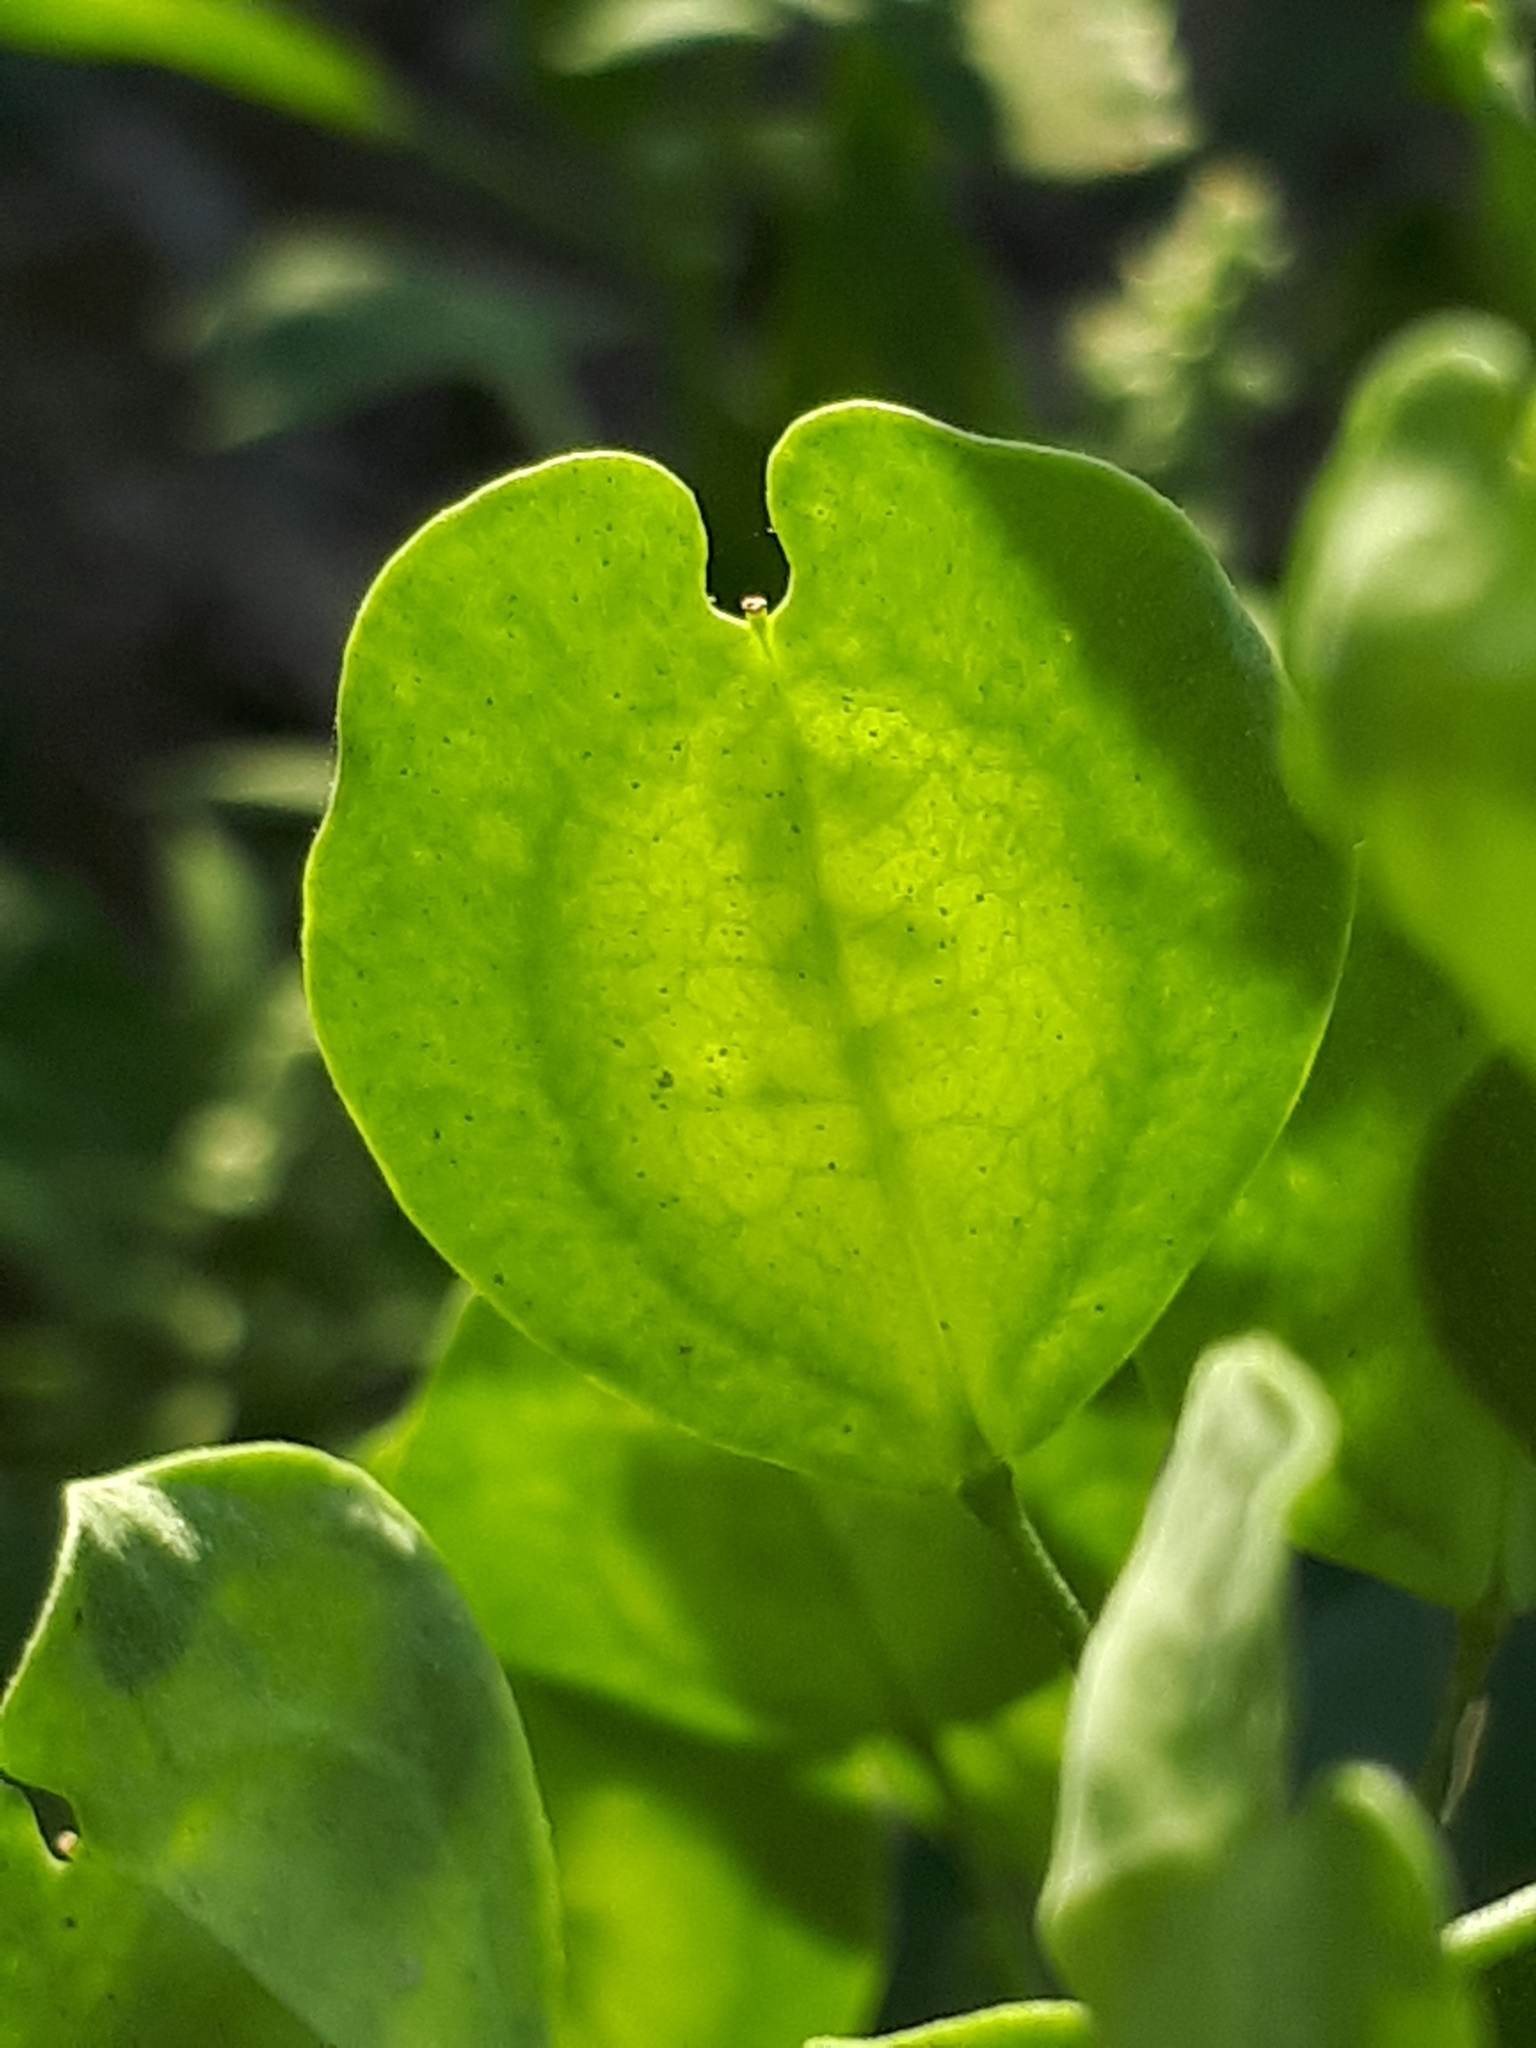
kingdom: Plantae
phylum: Tracheophyta
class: Magnoliopsida
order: Brassicales
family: Brassicaceae
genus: Thlaspi
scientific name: Thlaspi arvense
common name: Field pennycress
